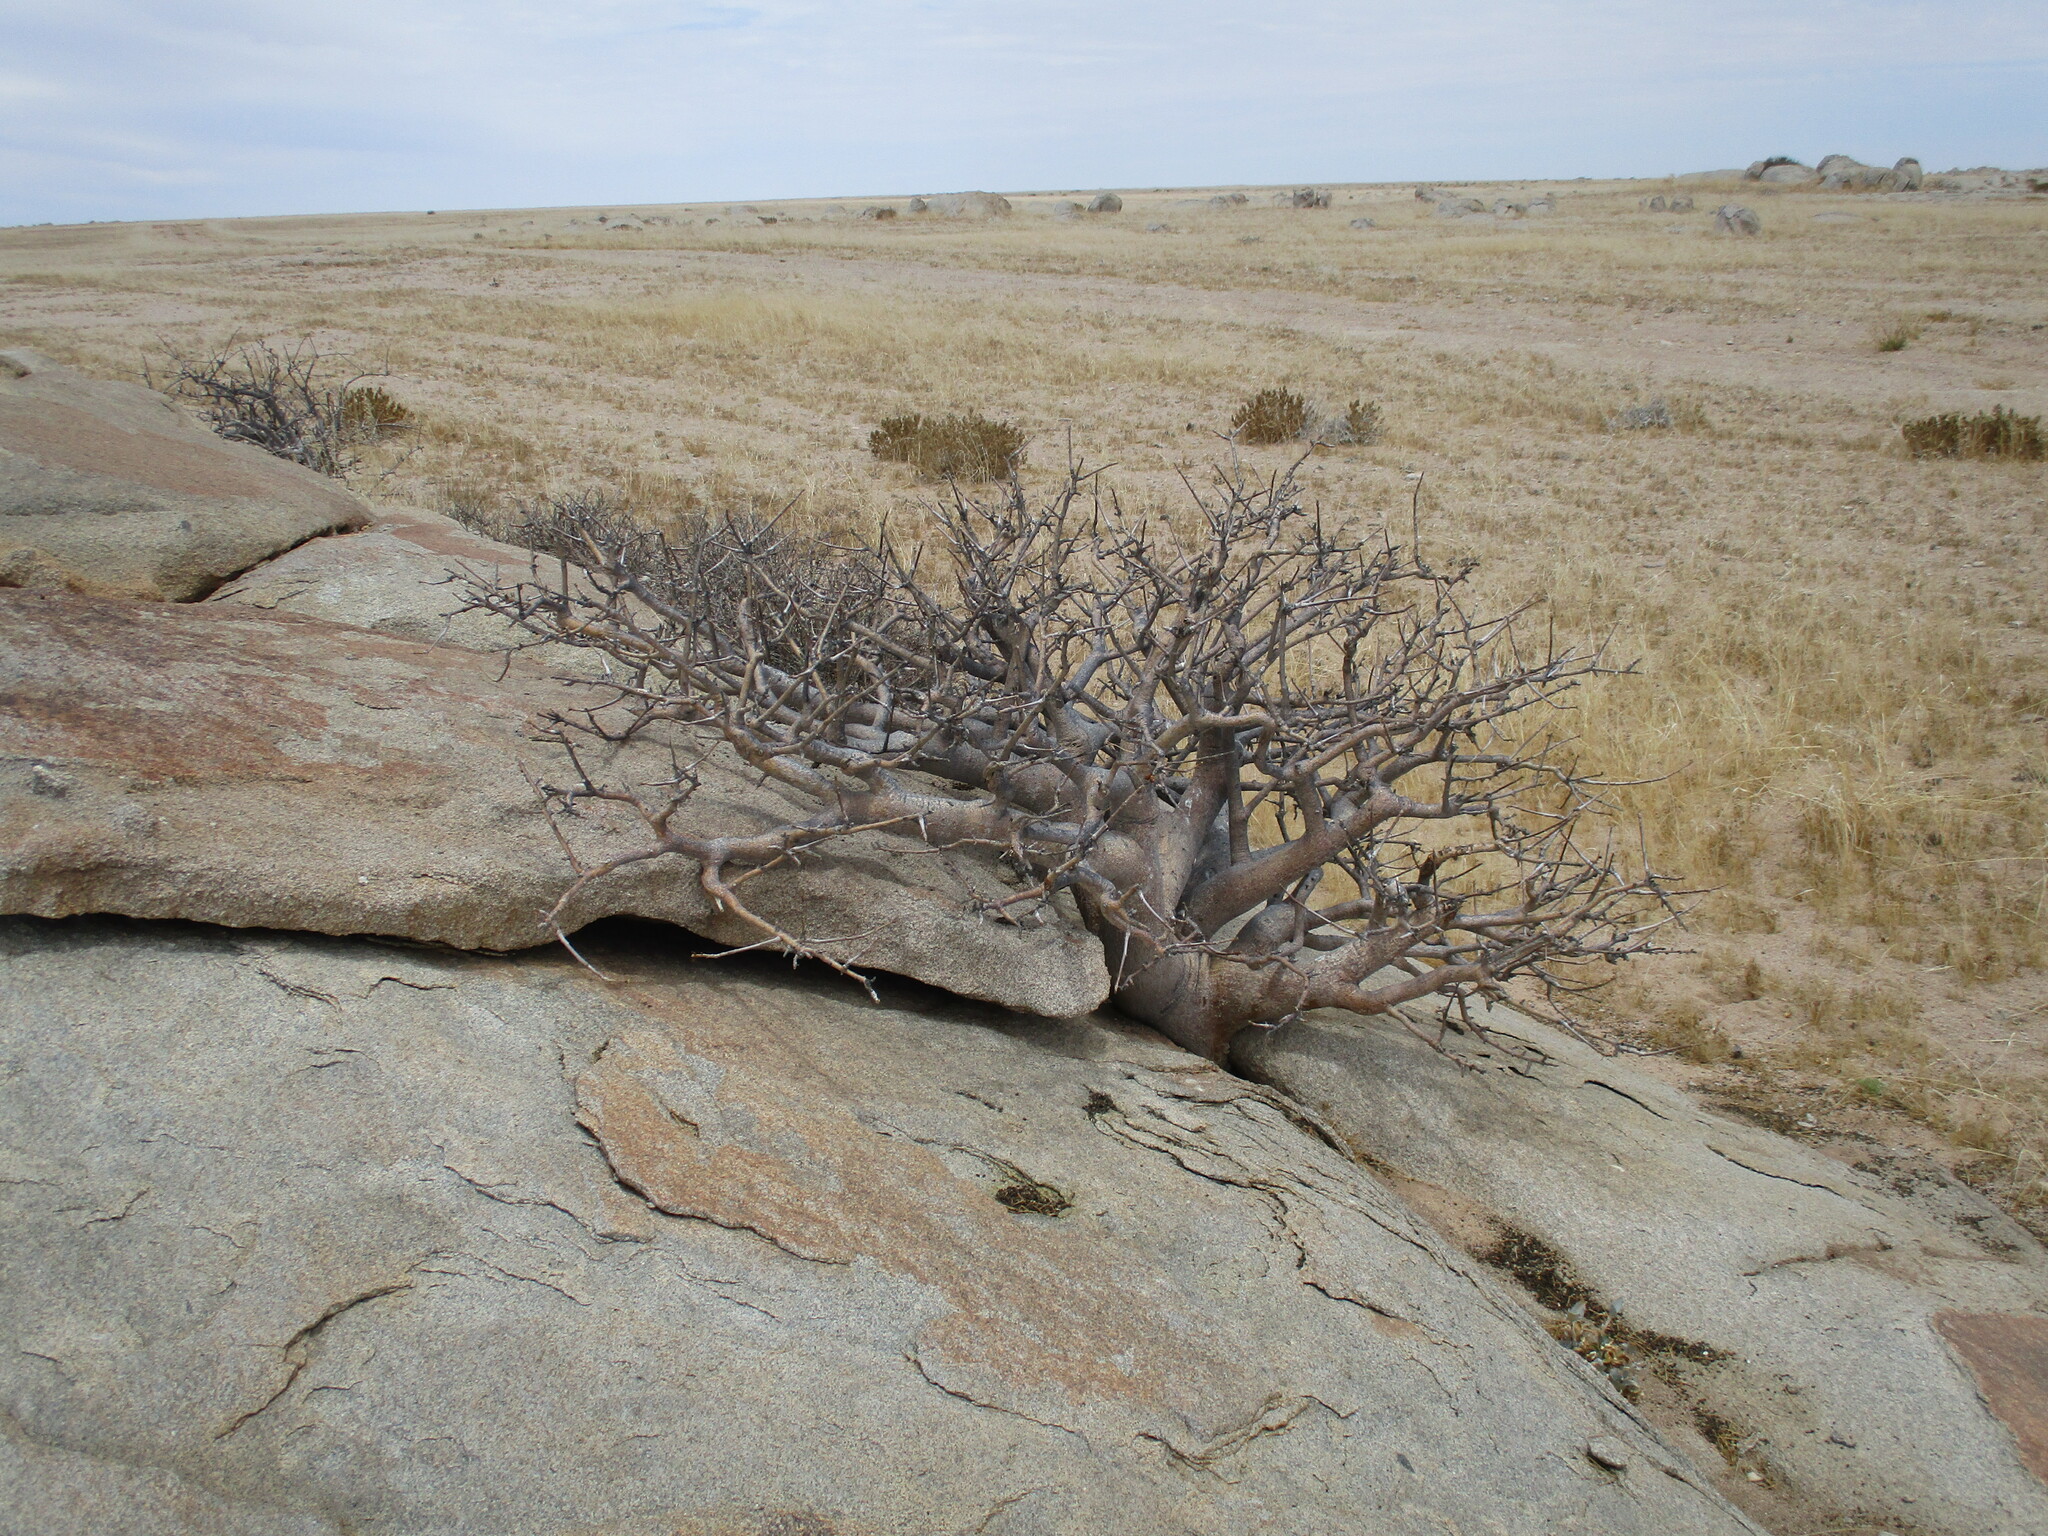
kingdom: Plantae
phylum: Tracheophyta
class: Magnoliopsida
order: Sapindales
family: Burseraceae
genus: Commiphora
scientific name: Commiphora saxicola
